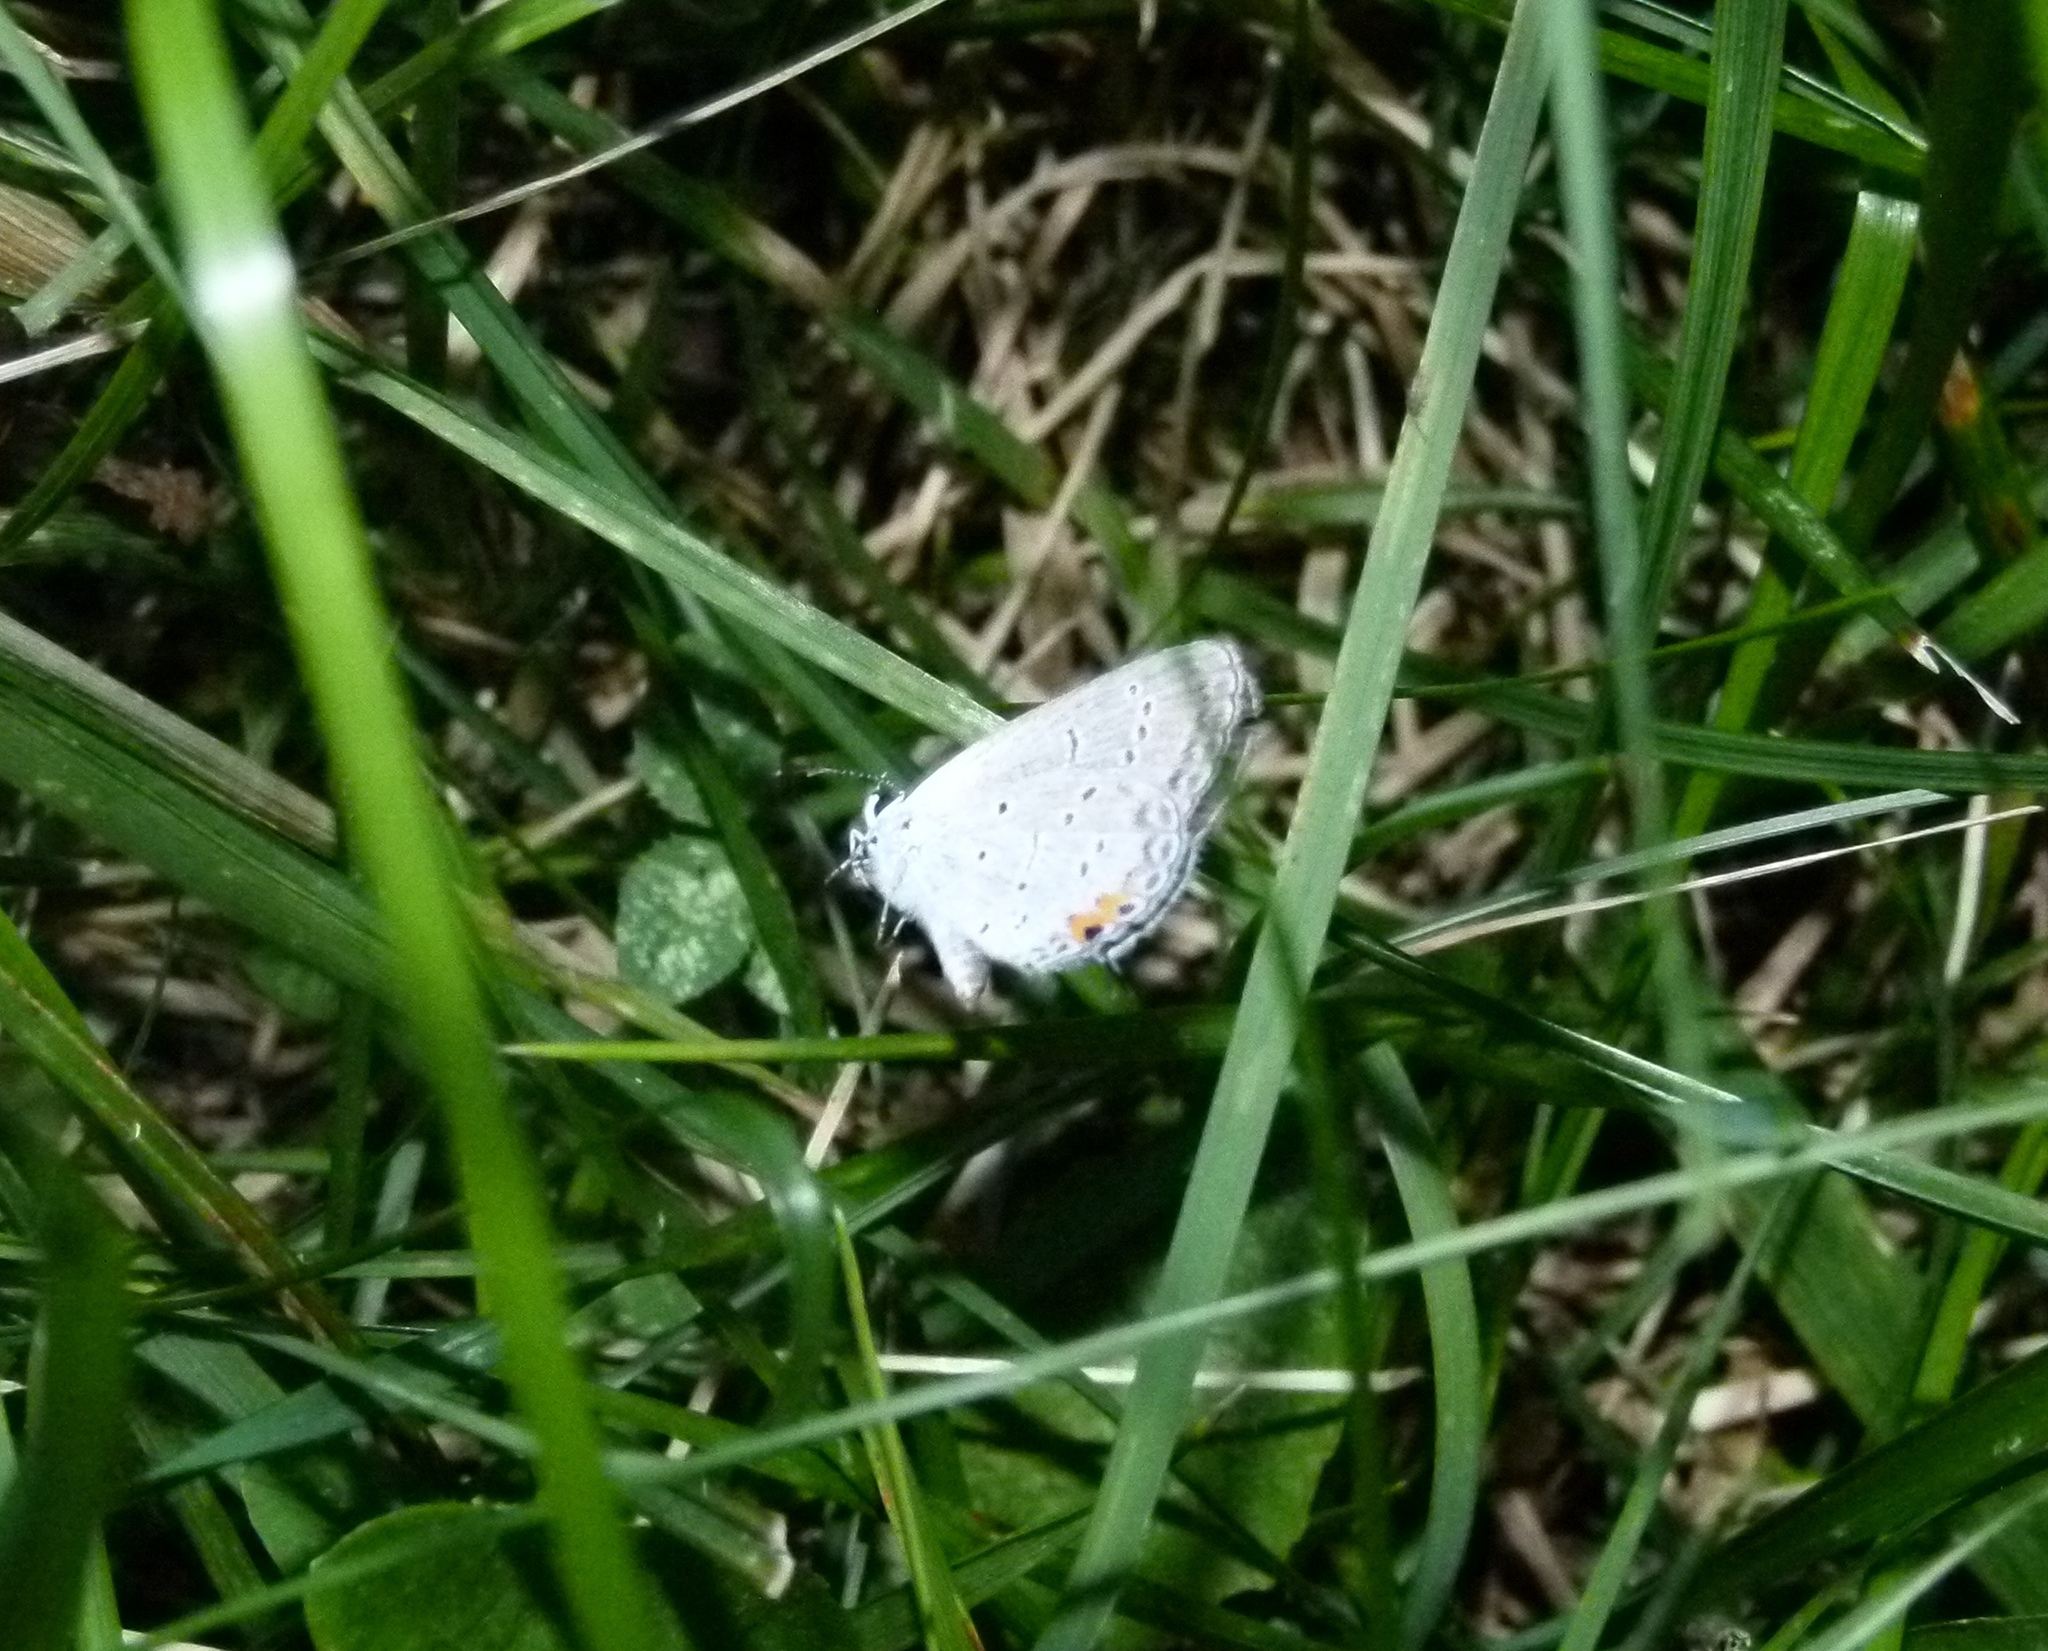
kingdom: Animalia
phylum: Arthropoda
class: Insecta
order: Lepidoptera
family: Lycaenidae
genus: Elkalyce
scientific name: Elkalyce comyntas
